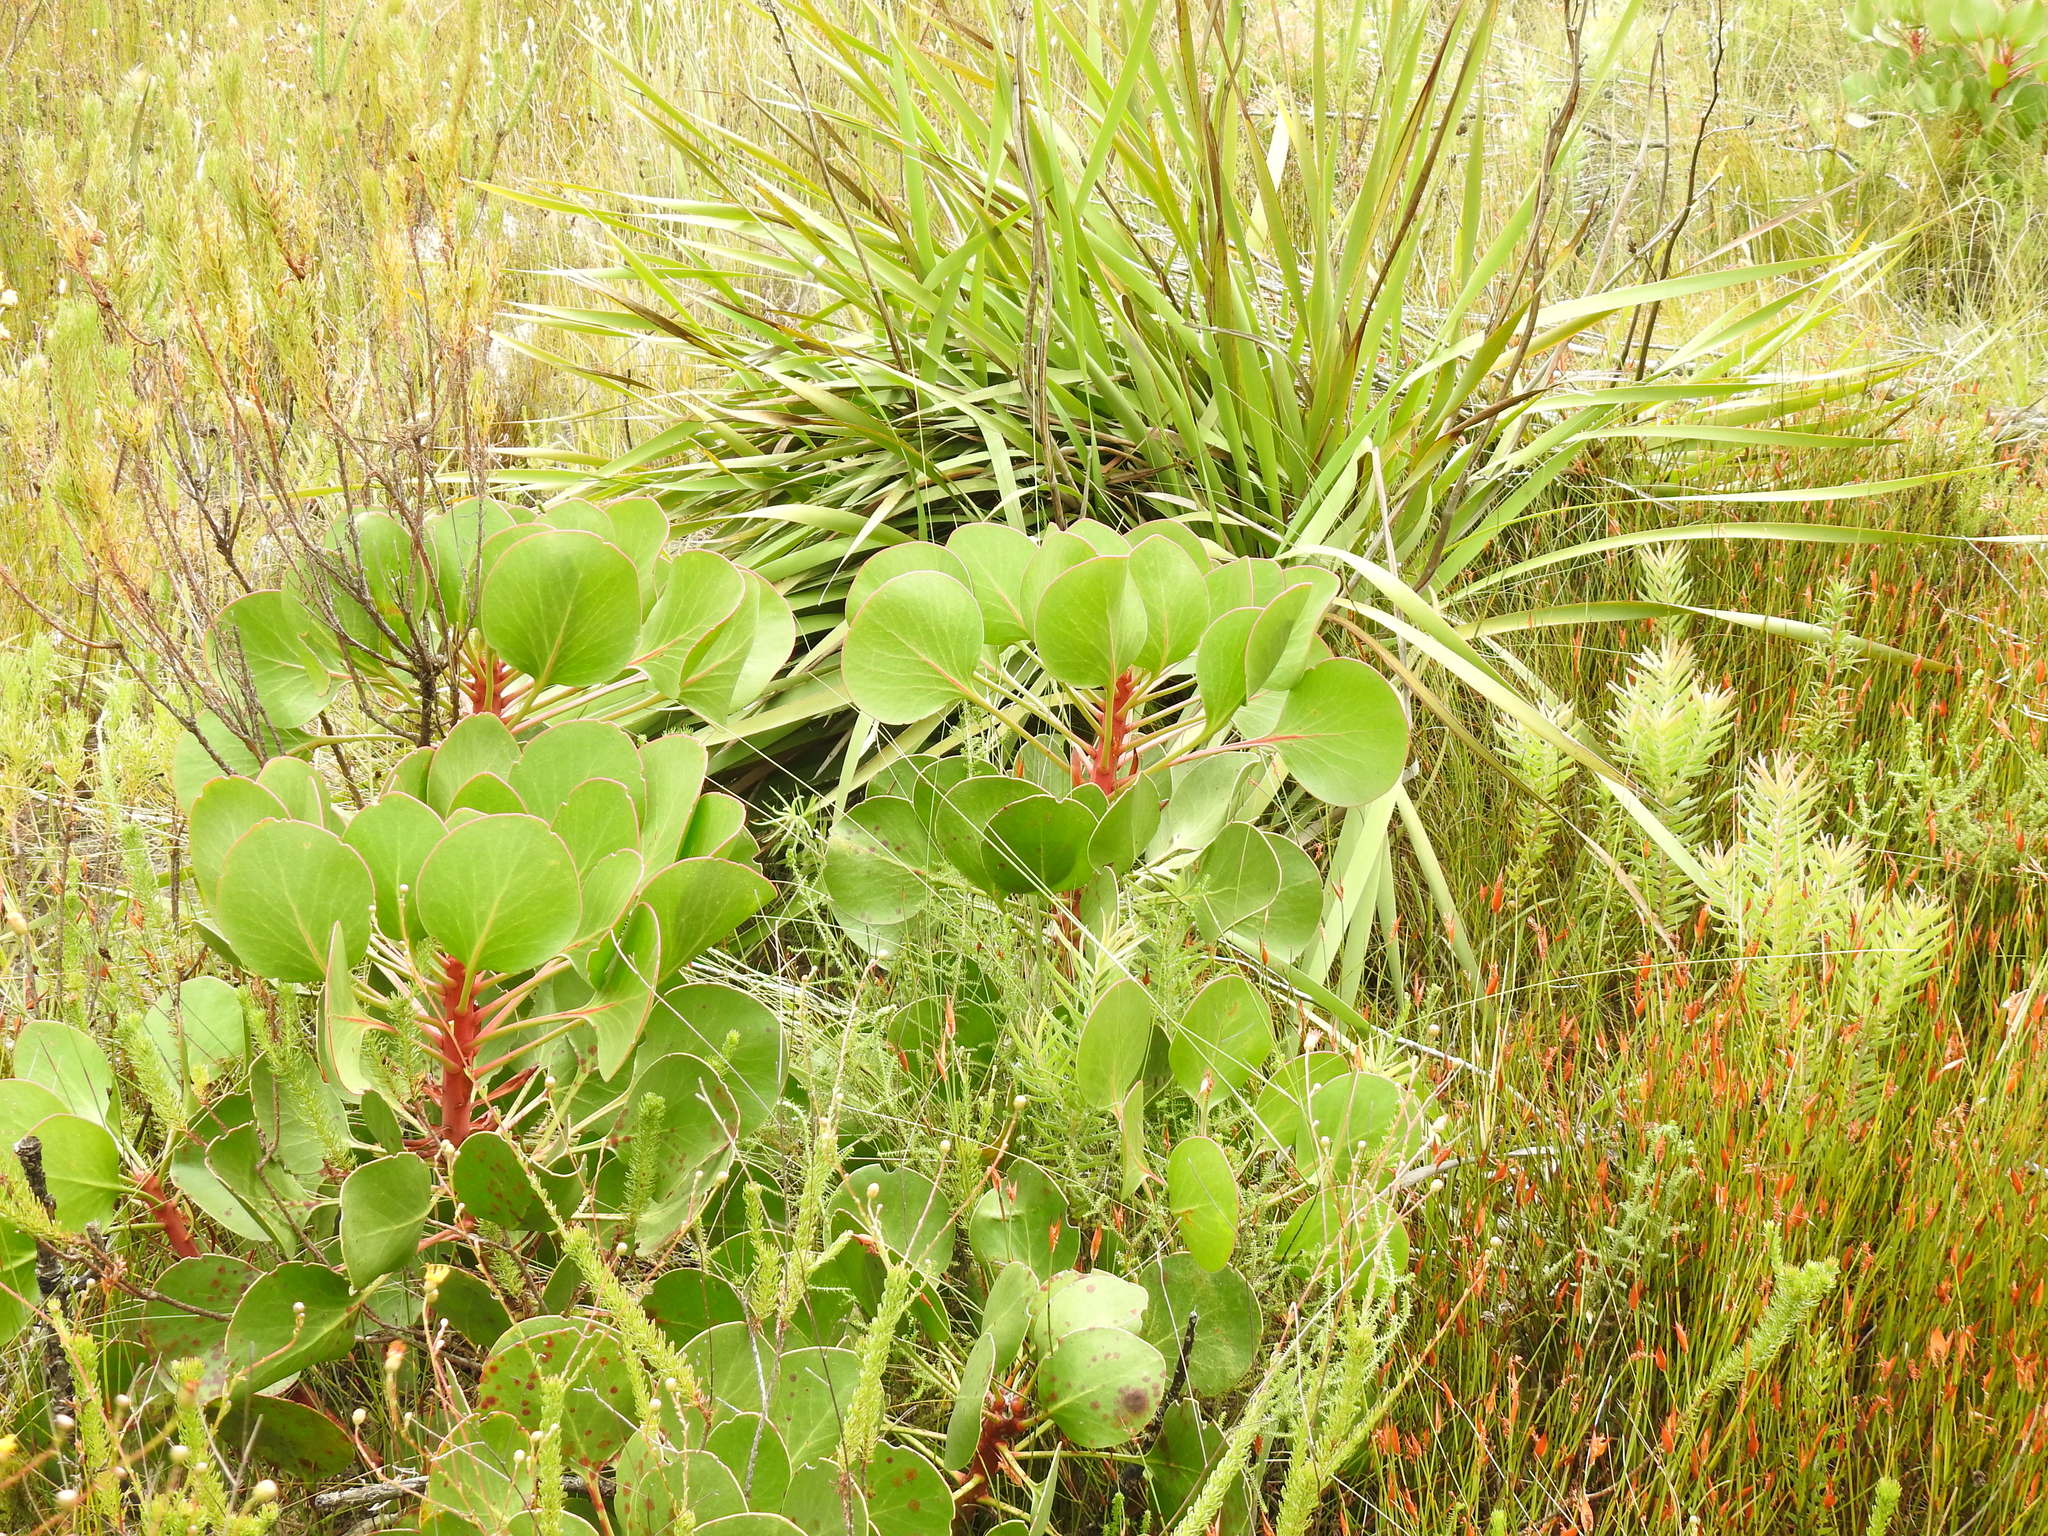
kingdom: Plantae
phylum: Tracheophyta
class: Magnoliopsida
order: Proteales
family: Proteaceae
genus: Protea
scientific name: Protea cynaroides
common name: King protea
